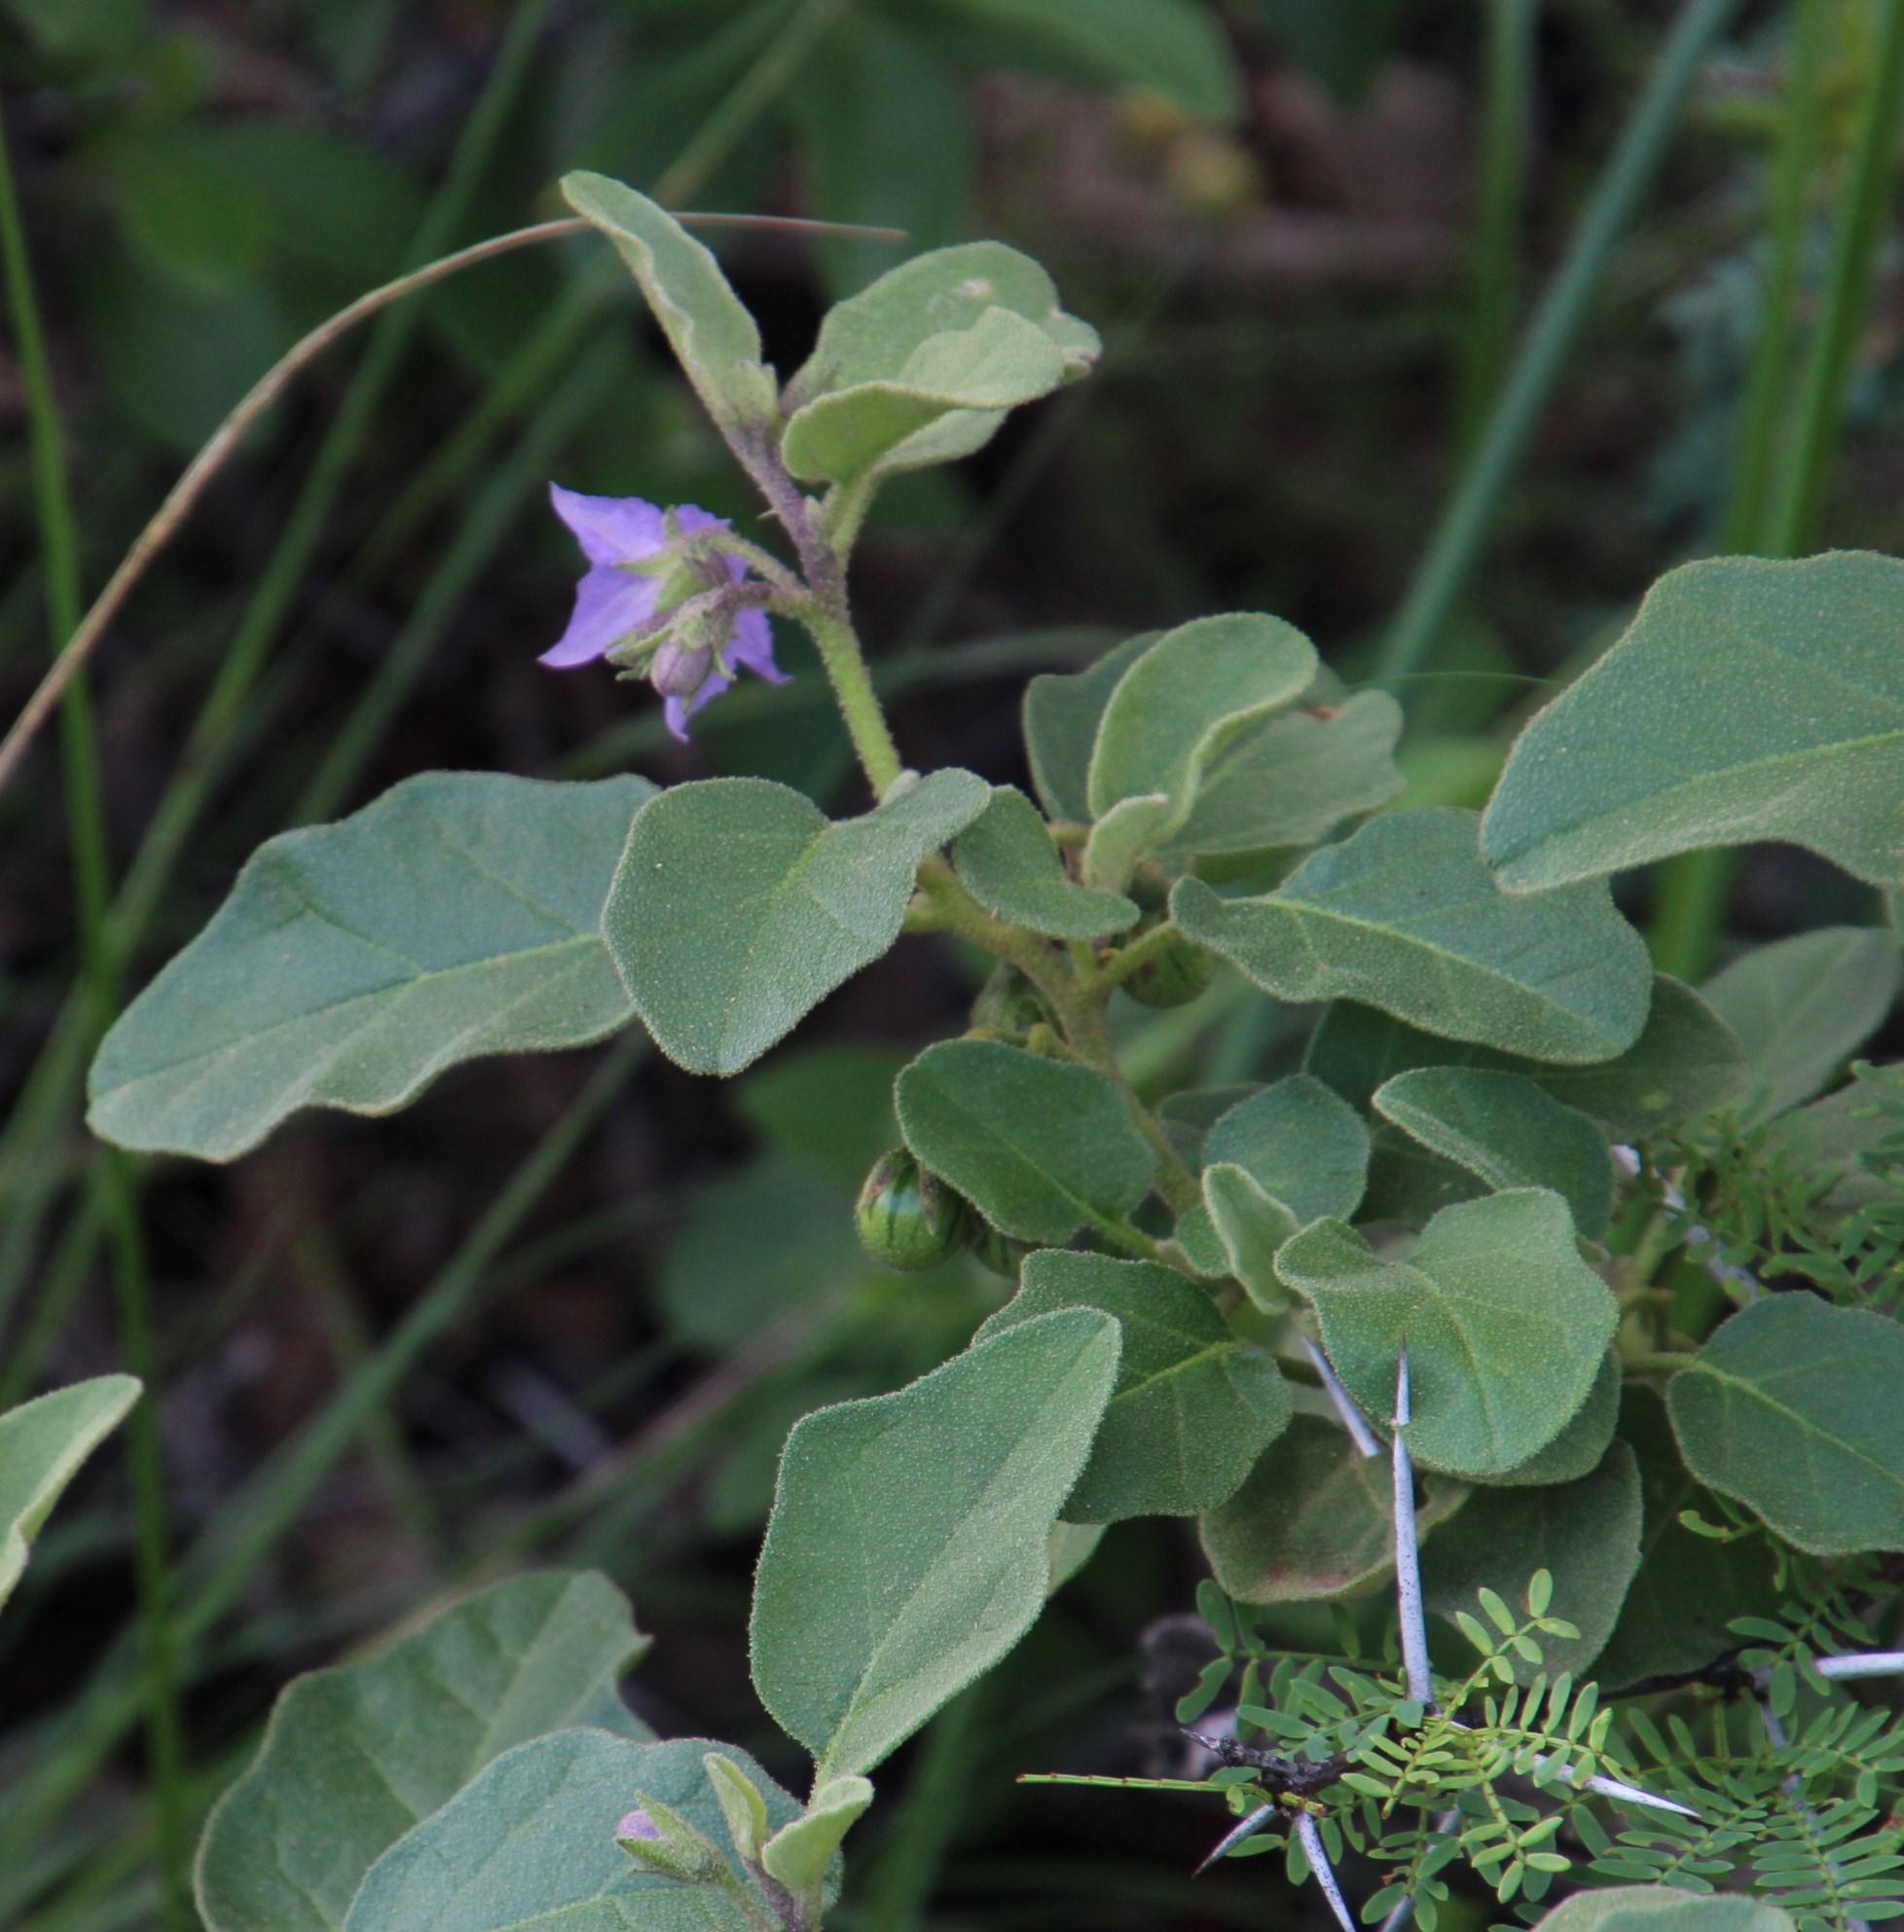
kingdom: Plantae
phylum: Tracheophyta
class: Magnoliopsida
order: Solanales
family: Solanaceae
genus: Solanum
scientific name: Solanum tomentosum
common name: Wild aubergine
